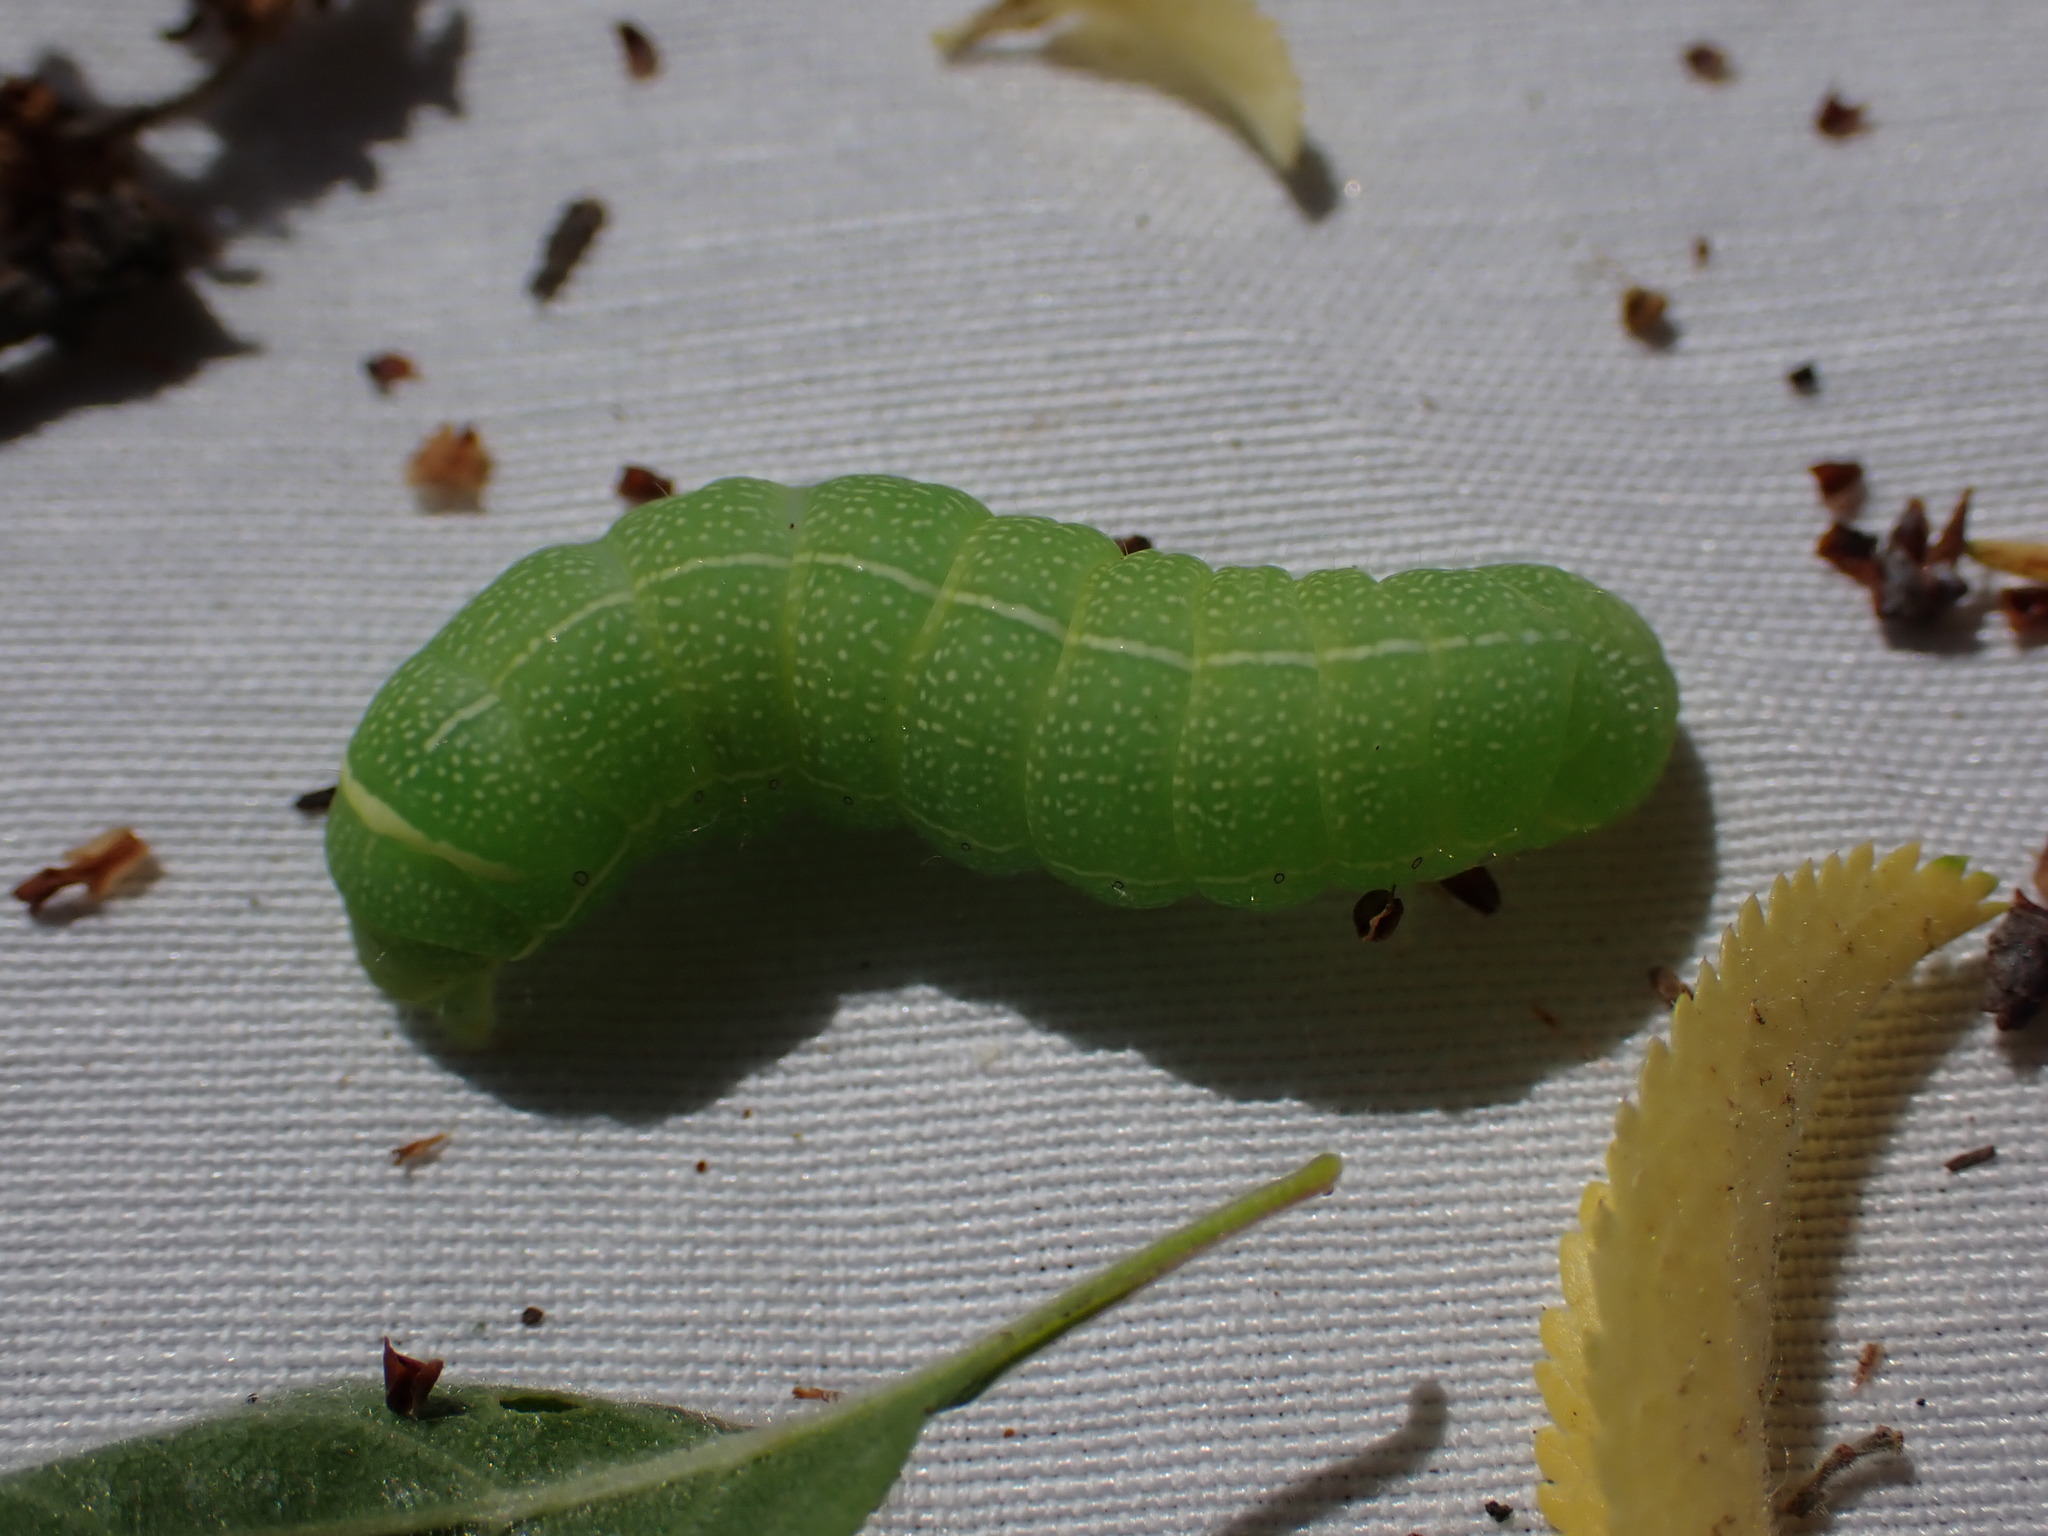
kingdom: Animalia
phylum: Arthropoda
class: Insecta
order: Lepidoptera
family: Noctuidae
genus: Orthosia
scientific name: Orthosia cerasi
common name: Common quaker
